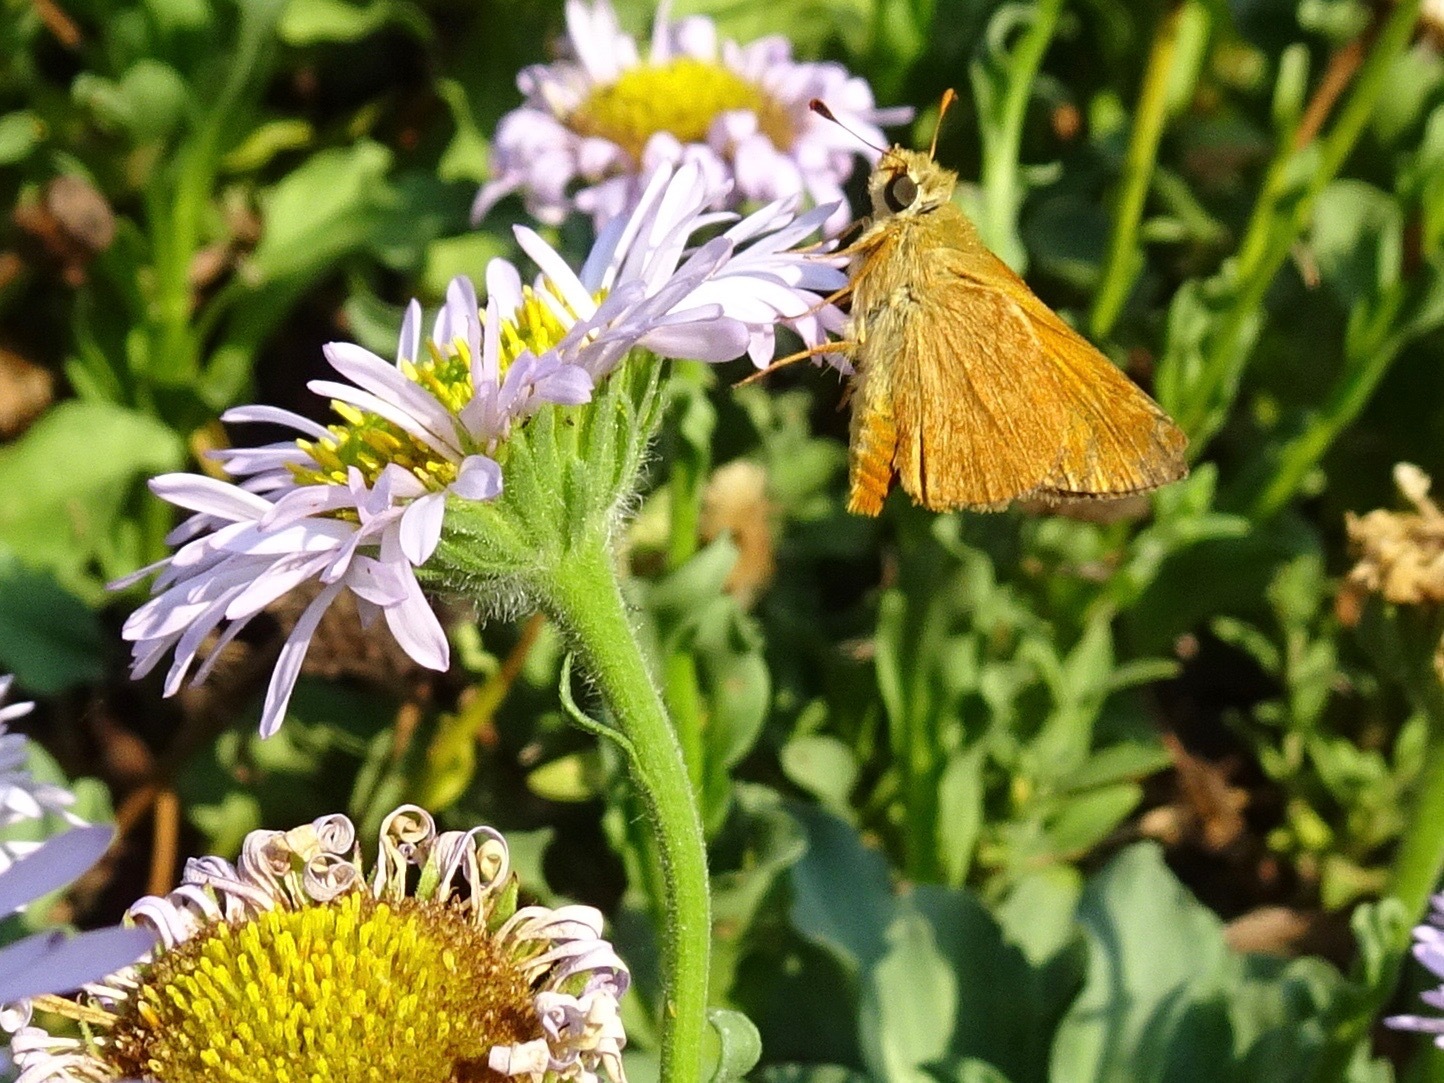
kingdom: Animalia
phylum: Arthropoda
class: Insecta
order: Lepidoptera
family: Hesperiidae
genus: Ochlodes
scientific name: Ochlodes sylvanoides
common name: Woodland skipper
